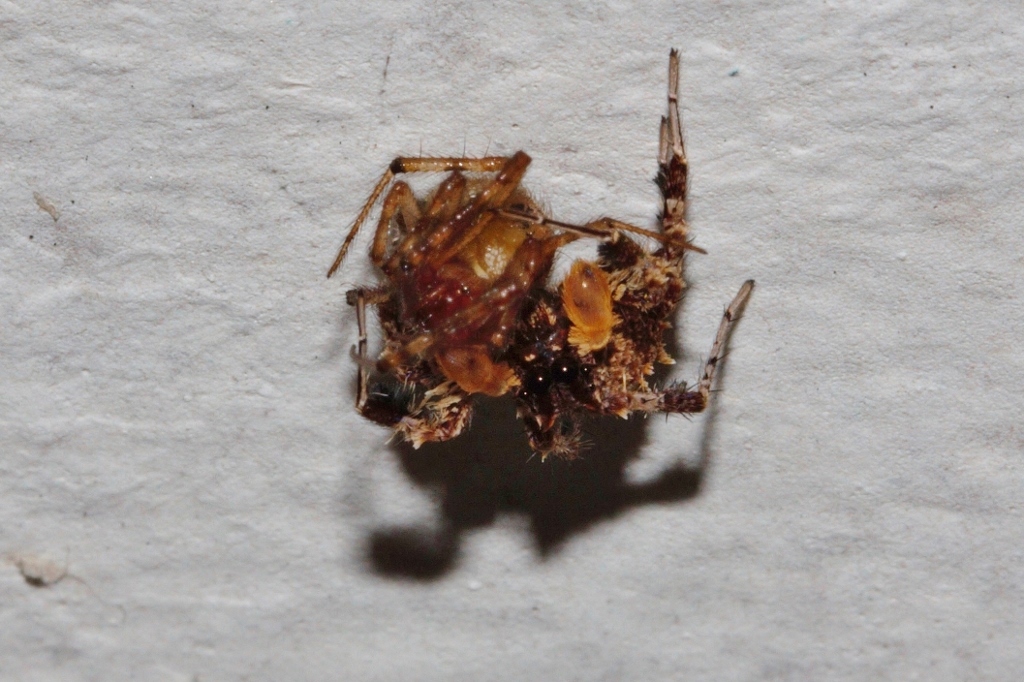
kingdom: Animalia
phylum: Arthropoda
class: Arachnida
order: Araneae
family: Salticidae
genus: Portia
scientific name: Portia schultzi
